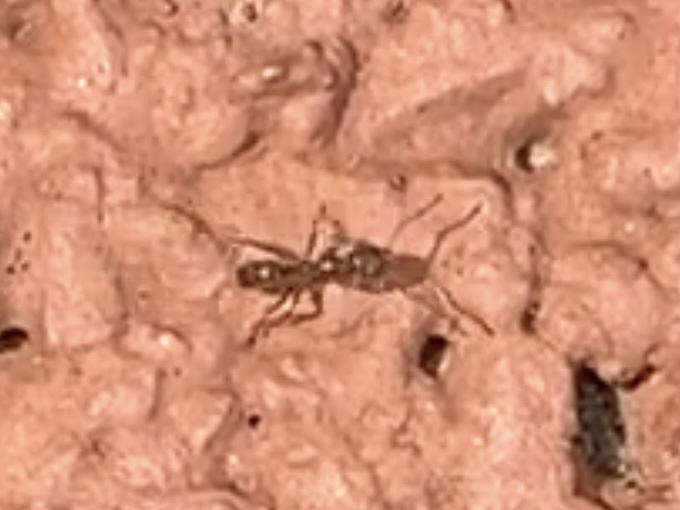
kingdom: Animalia
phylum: Arthropoda
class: Insecta
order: Hymenoptera
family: Formicidae
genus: Linepithema
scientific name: Linepithema humile
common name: Argentine ant
